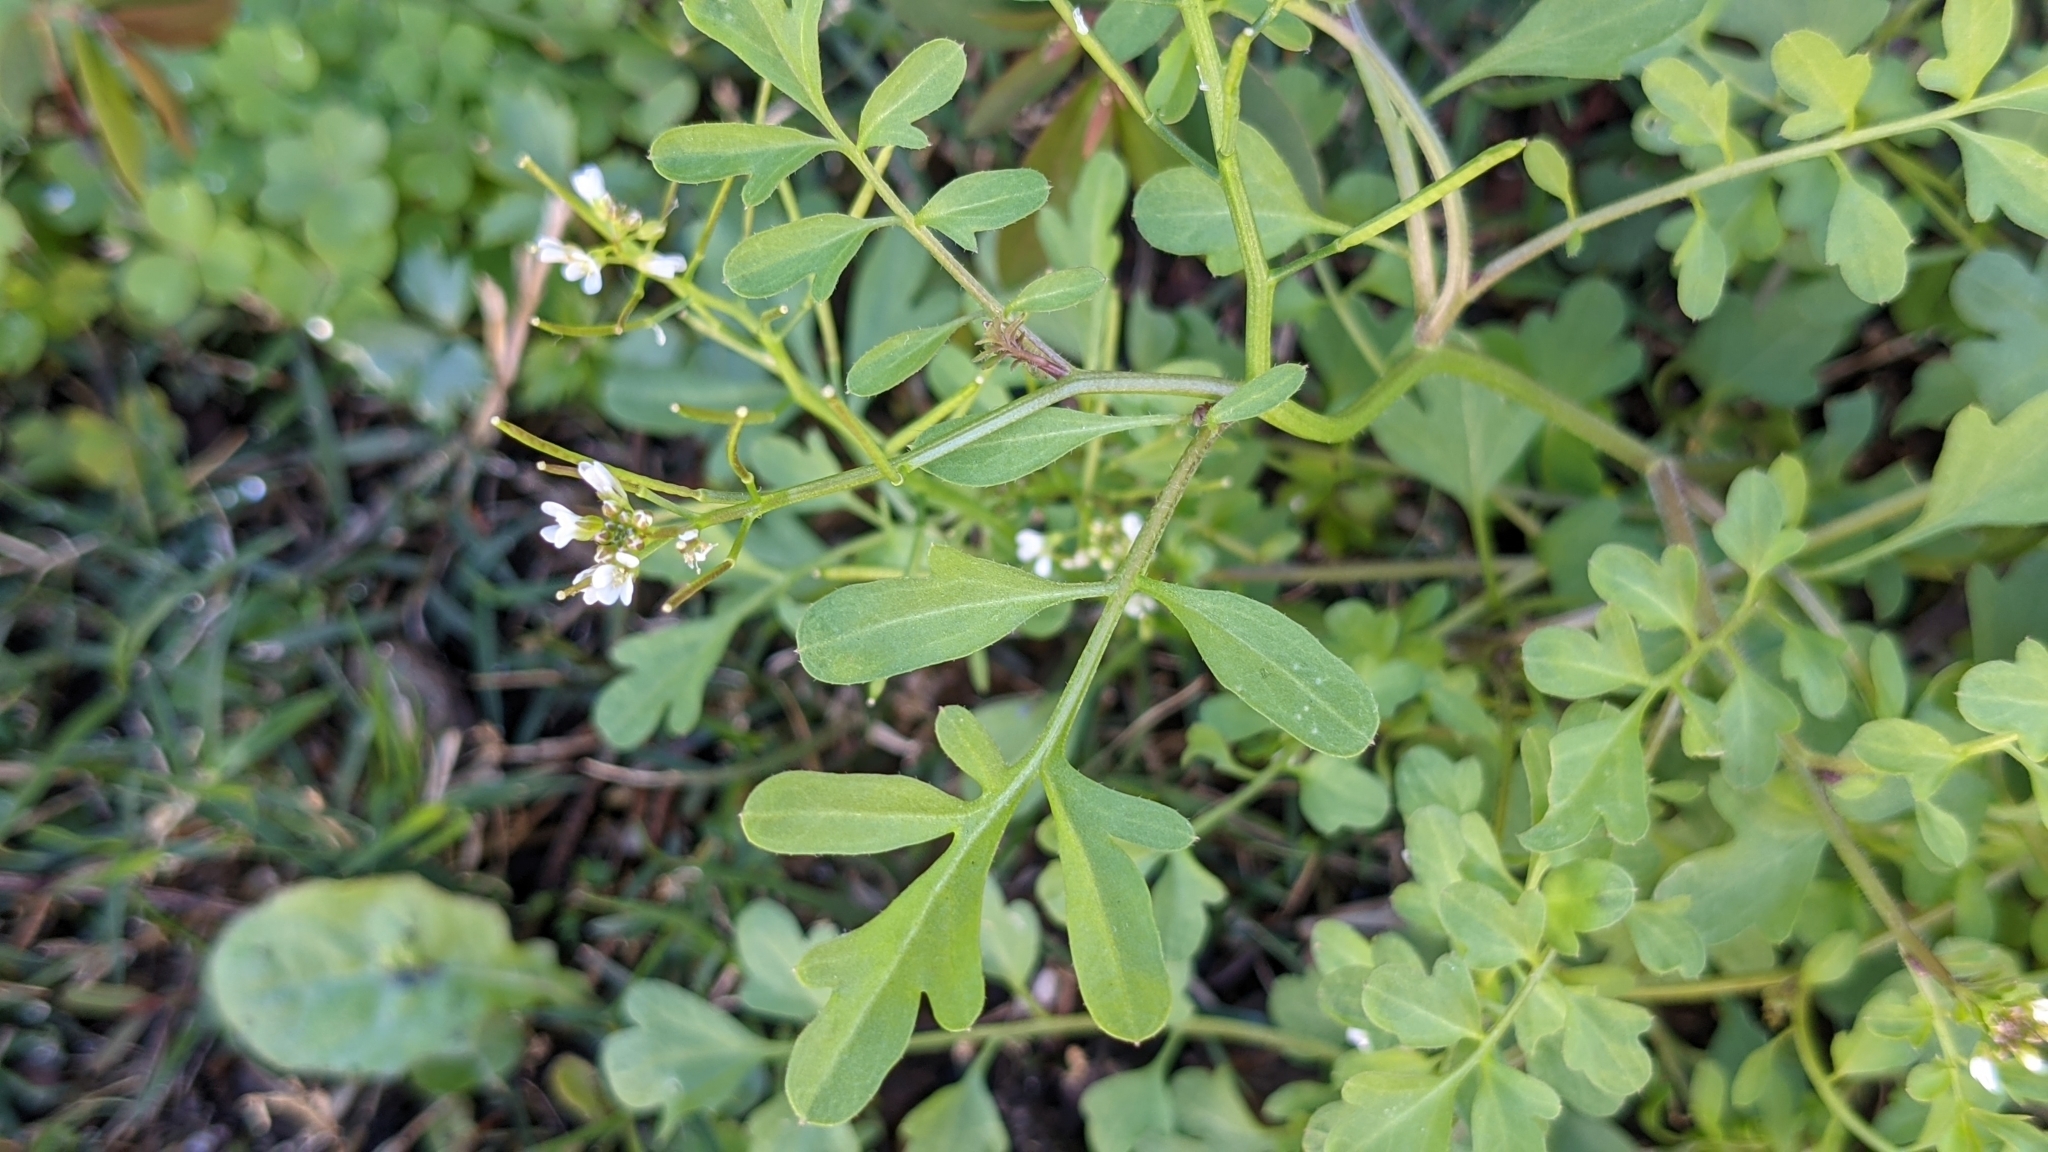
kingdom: Plantae
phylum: Tracheophyta
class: Magnoliopsida
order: Brassicales
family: Brassicaceae
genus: Cardamine
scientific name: Cardamine occulta
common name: Asian wavy bittercress
